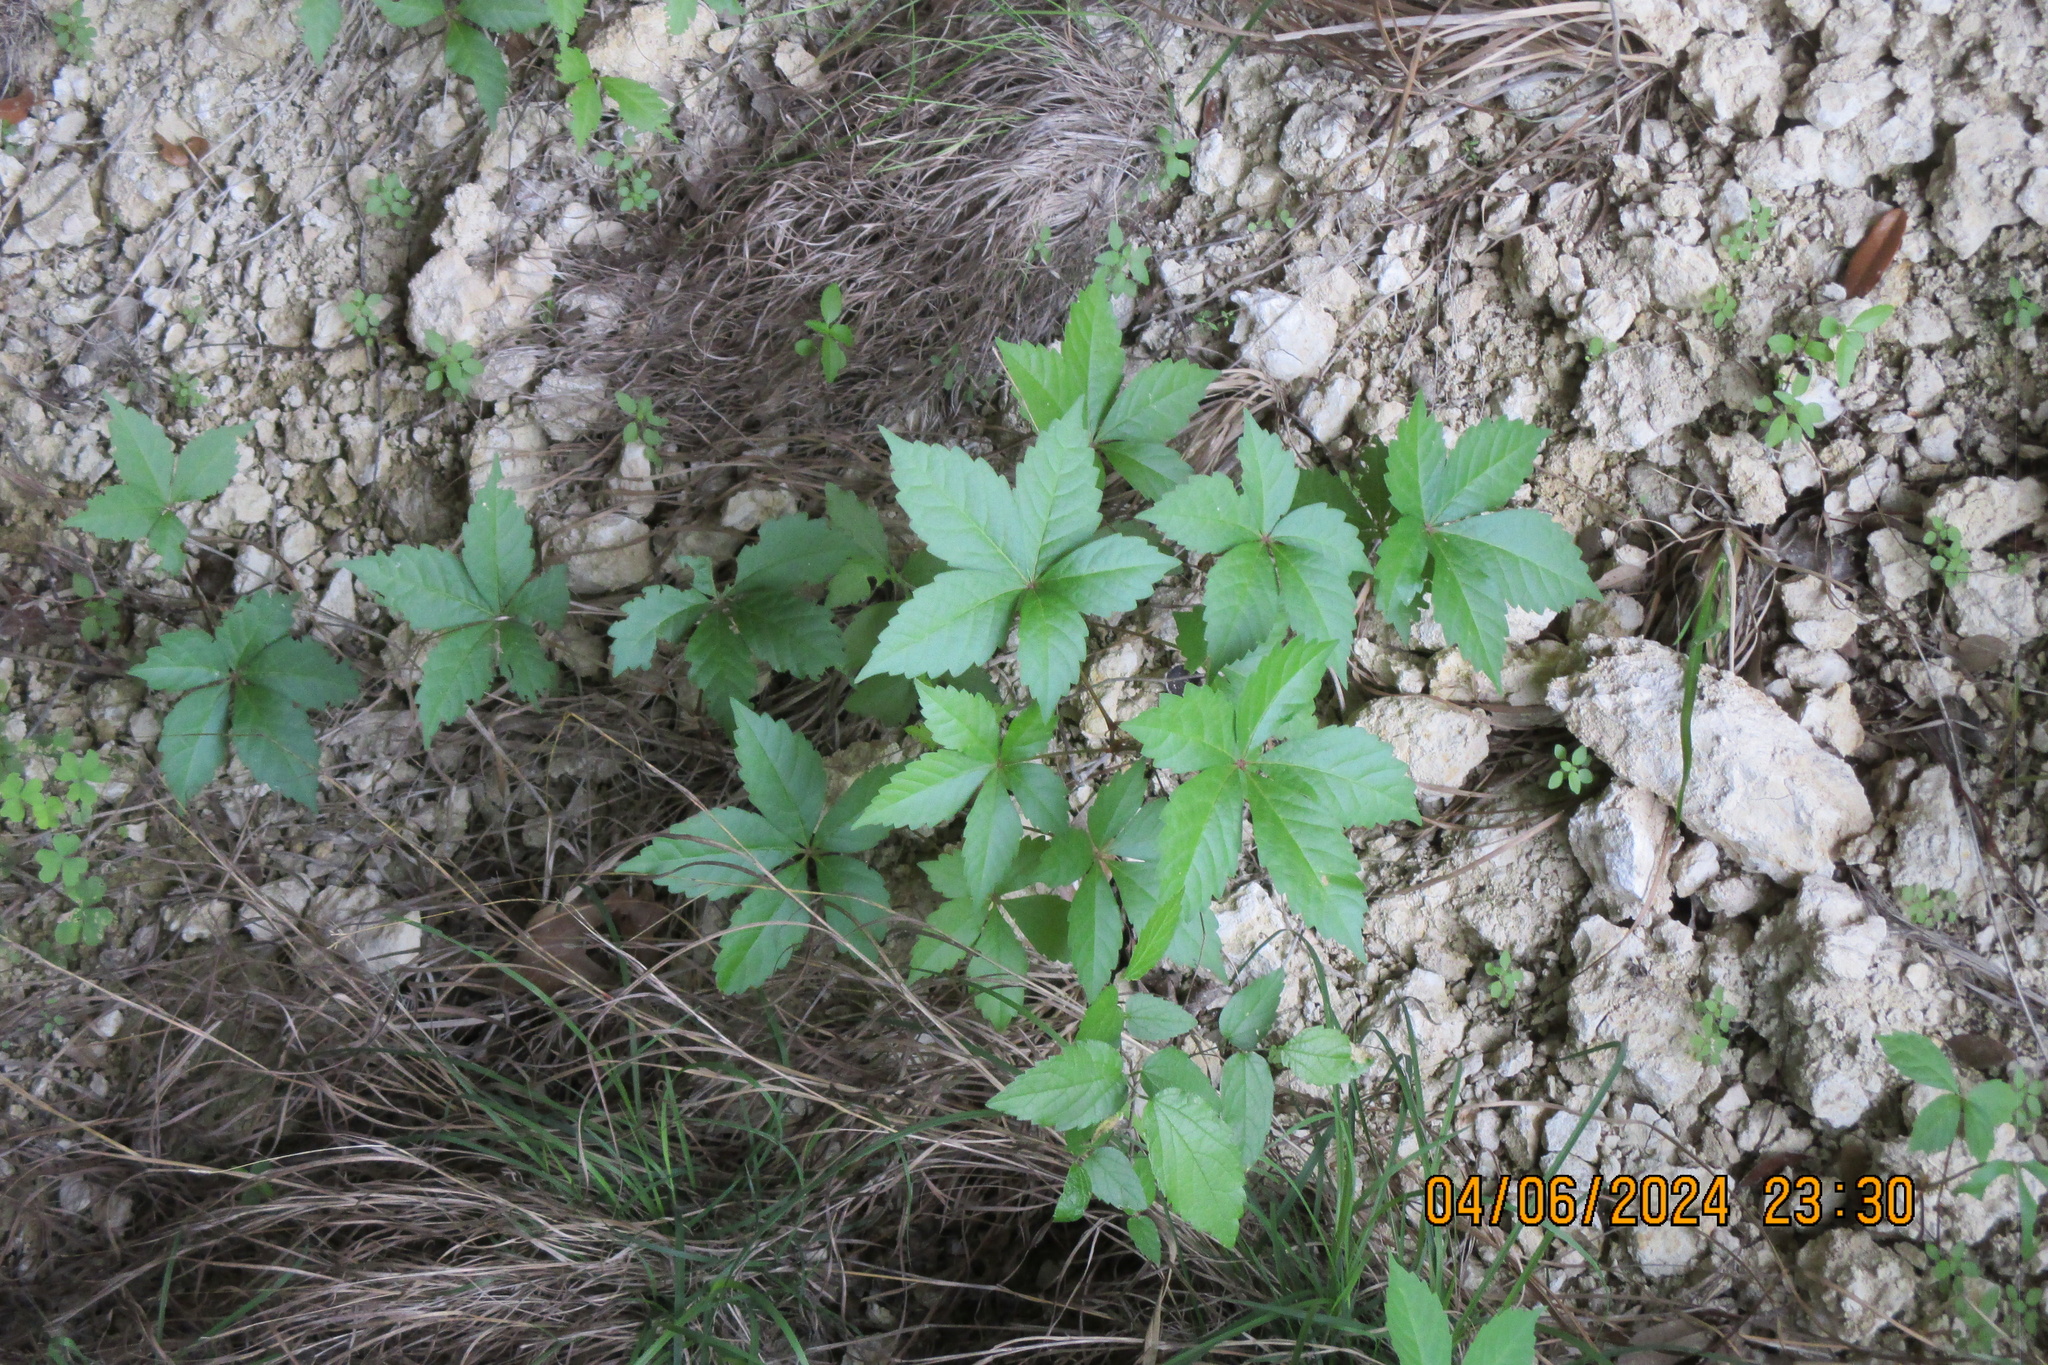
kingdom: Plantae
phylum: Tracheophyta
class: Magnoliopsida
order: Vitales
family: Vitaceae
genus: Parthenocissus
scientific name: Parthenocissus quinquefolia
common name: Virginia-creeper
